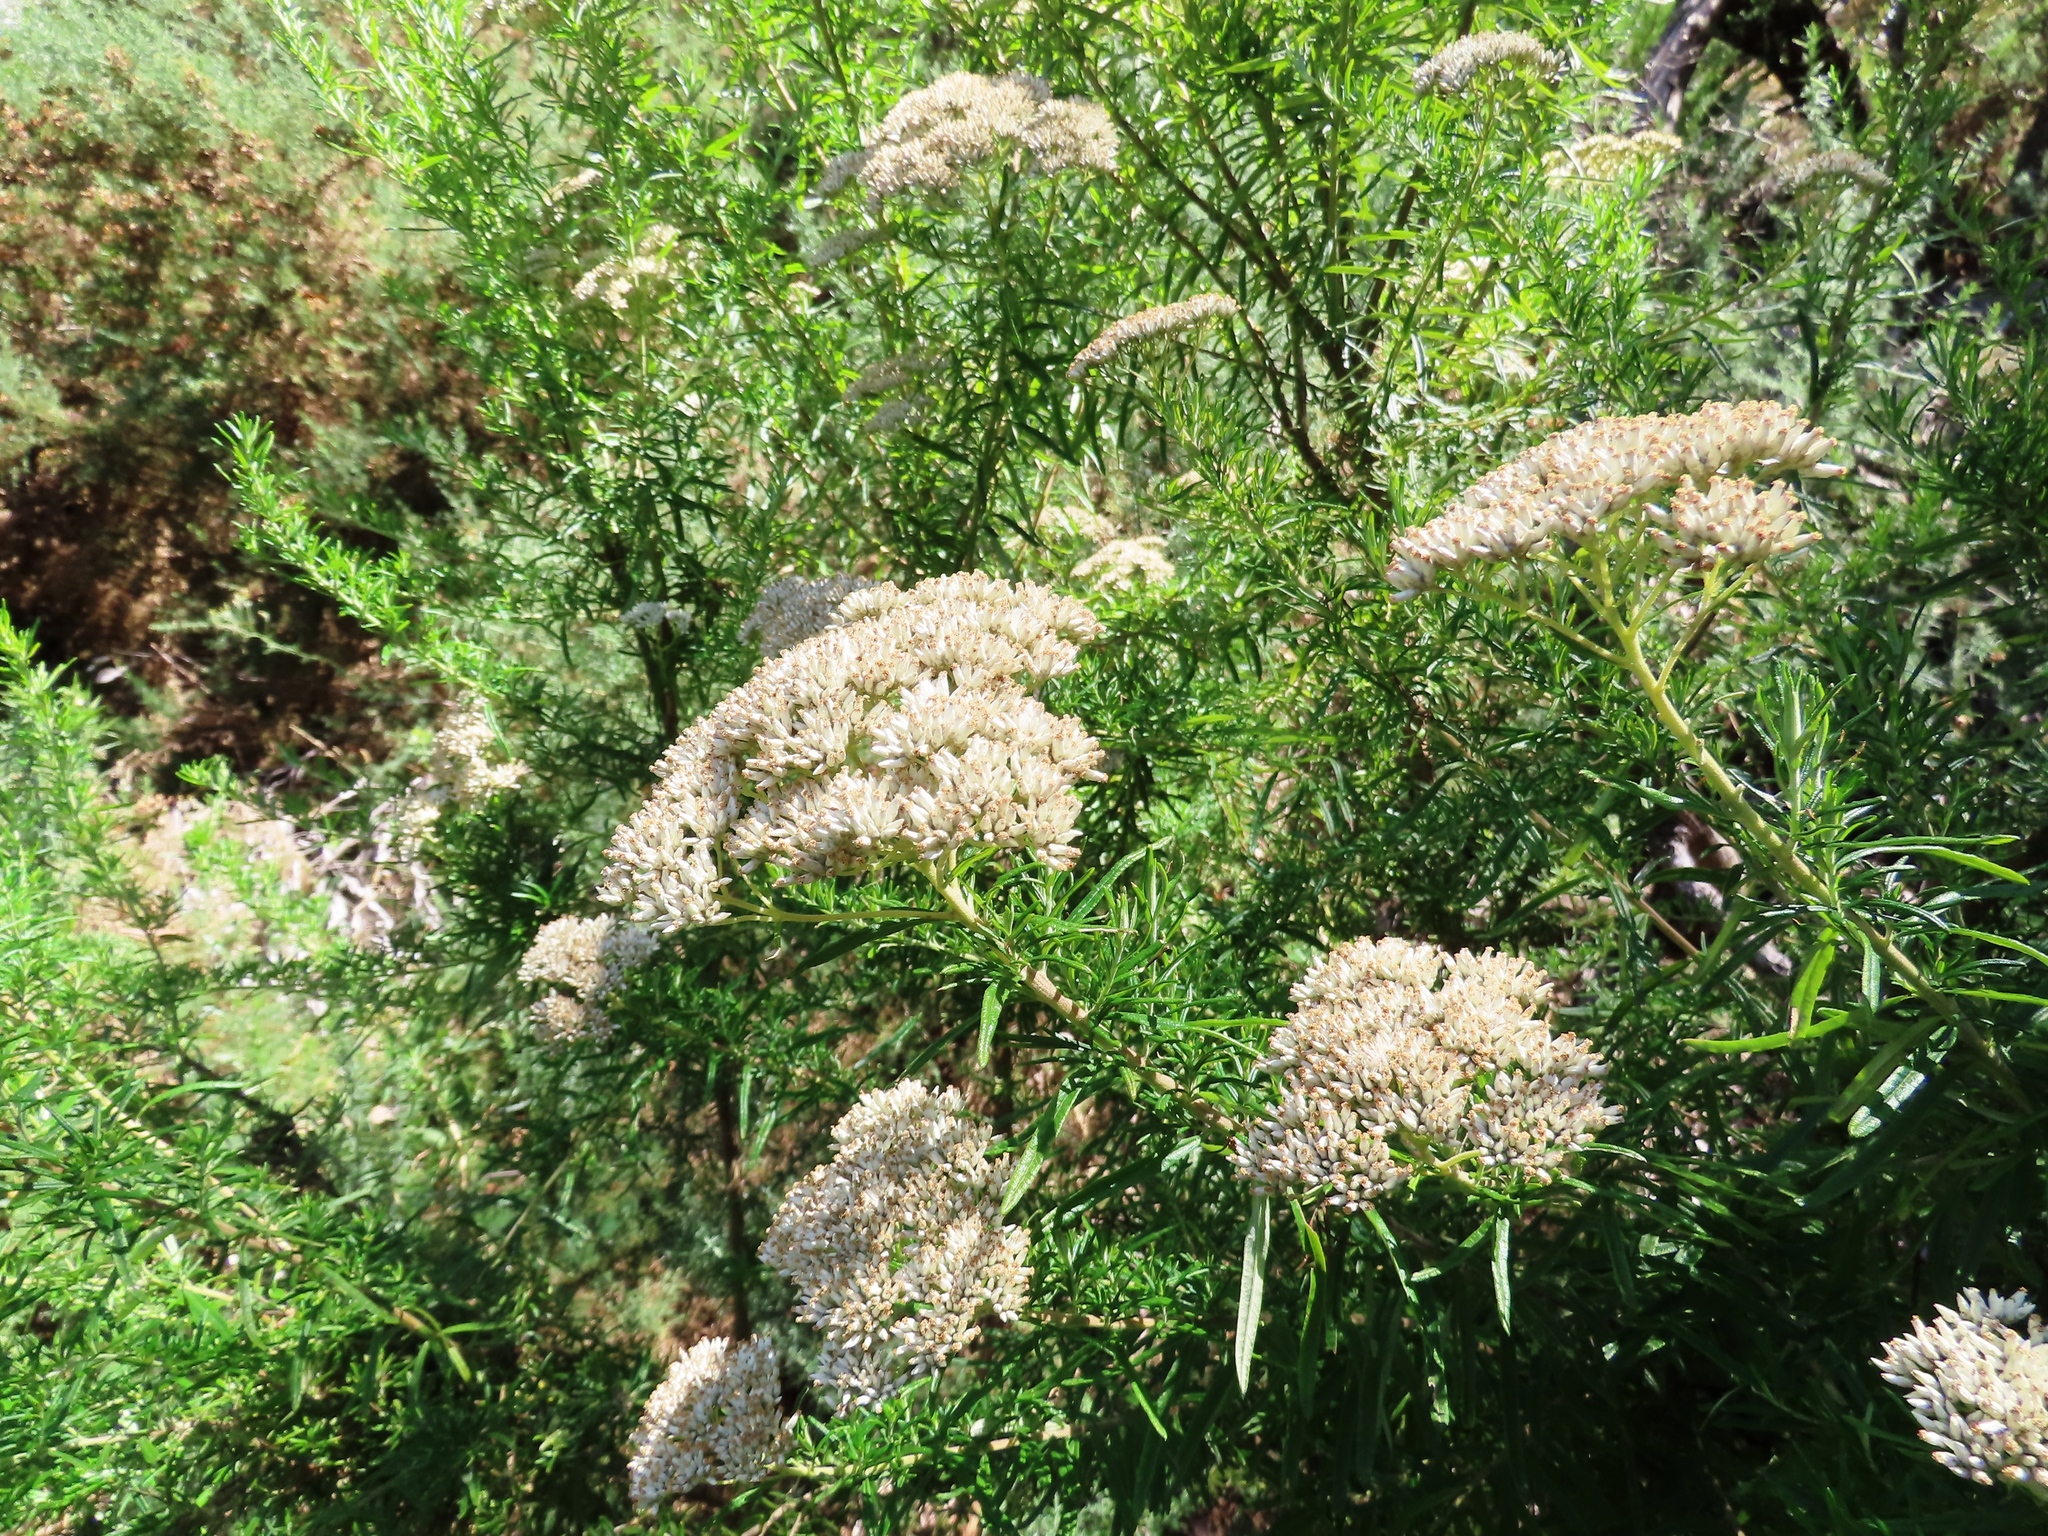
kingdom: Plantae
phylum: Tracheophyta
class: Magnoliopsida
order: Asterales
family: Asteraceae
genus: Cassinia
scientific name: Cassinia aculeata
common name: Australian tauhinu
